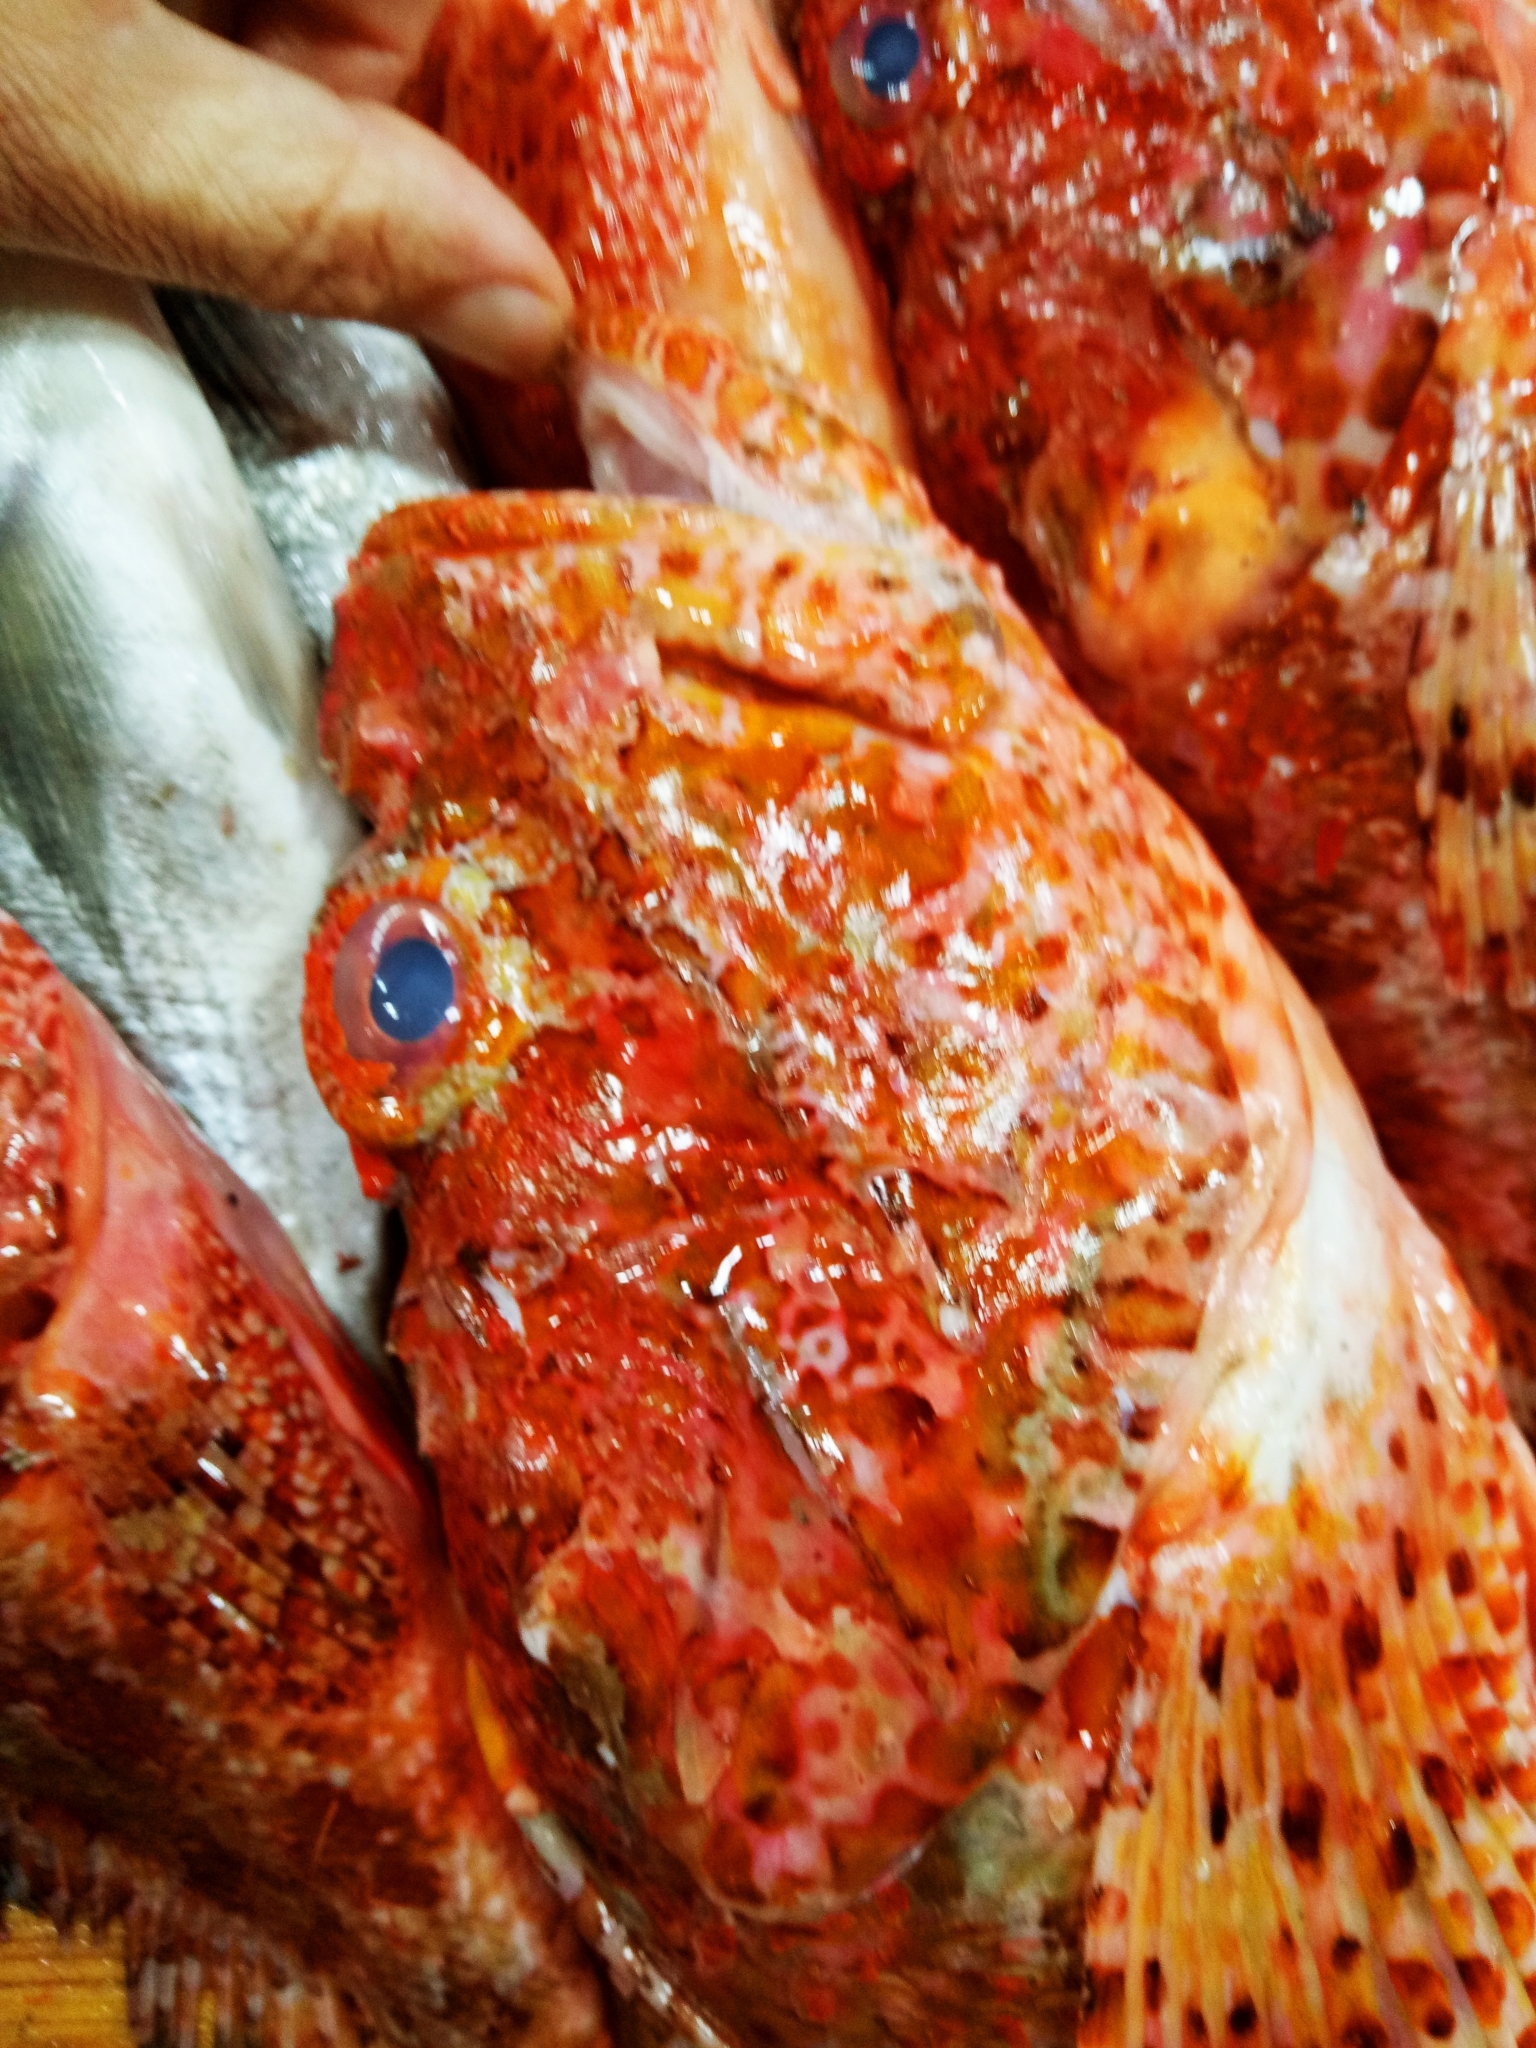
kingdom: Animalia
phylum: Chordata
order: Scorpaeniformes
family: Scorpaenidae
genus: Scorpaena
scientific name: Scorpaena scrofa
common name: Red scorpionfish
